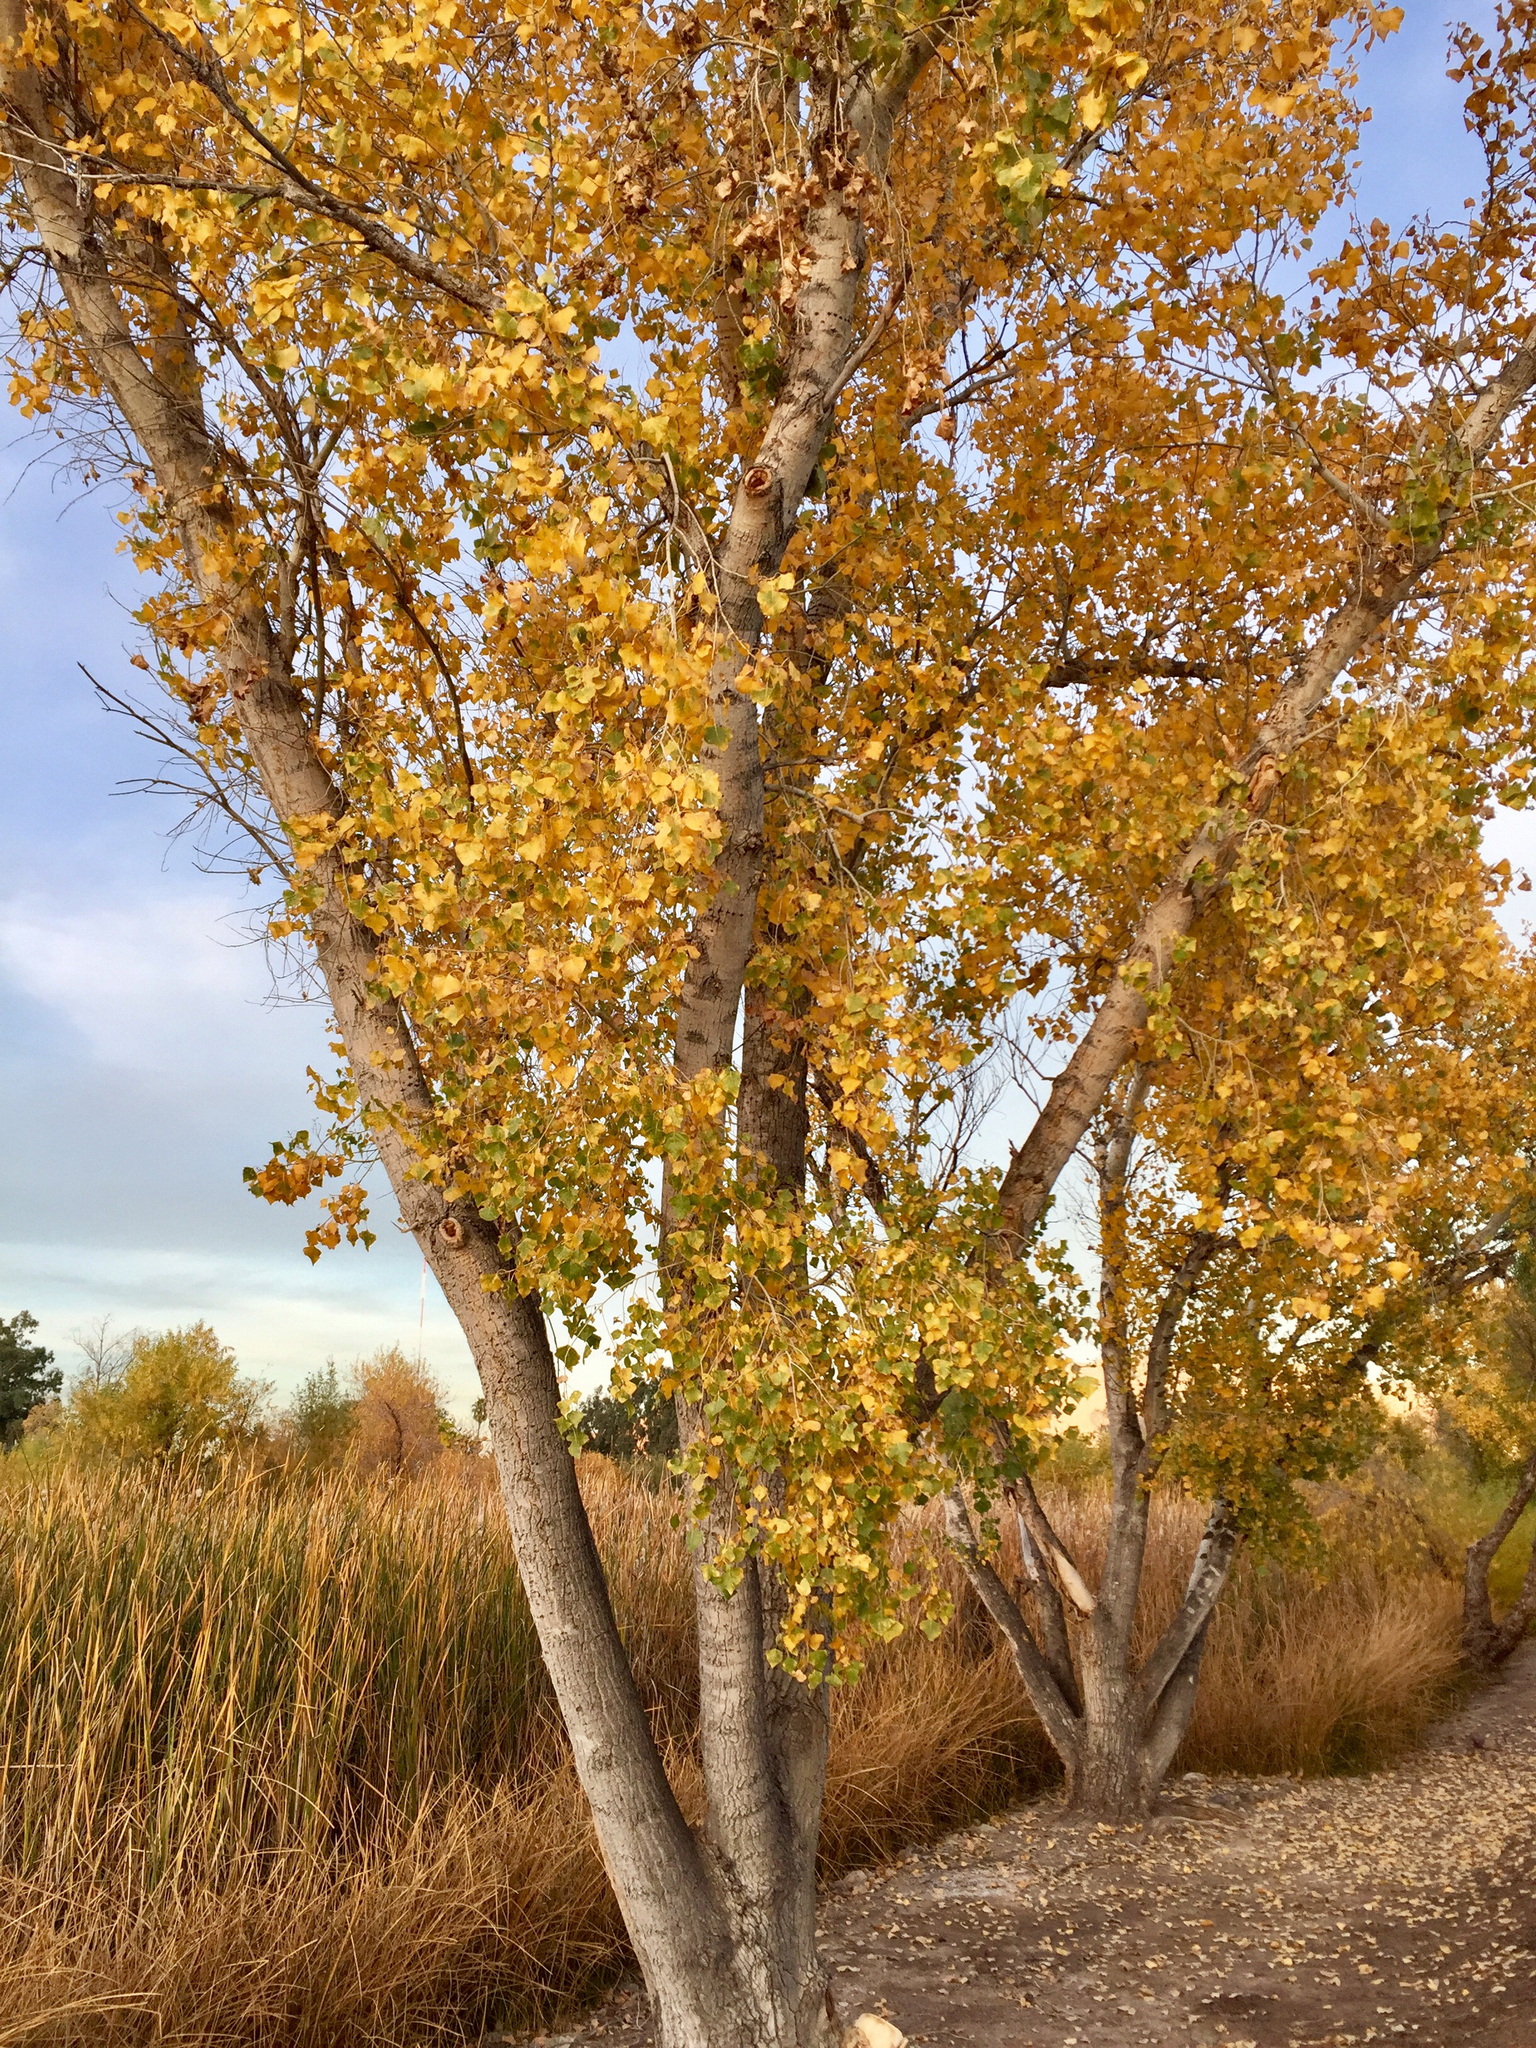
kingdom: Plantae
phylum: Tracheophyta
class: Magnoliopsida
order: Malpighiales
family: Salicaceae
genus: Populus
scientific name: Populus fremontii
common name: Fremont's cottonwood
